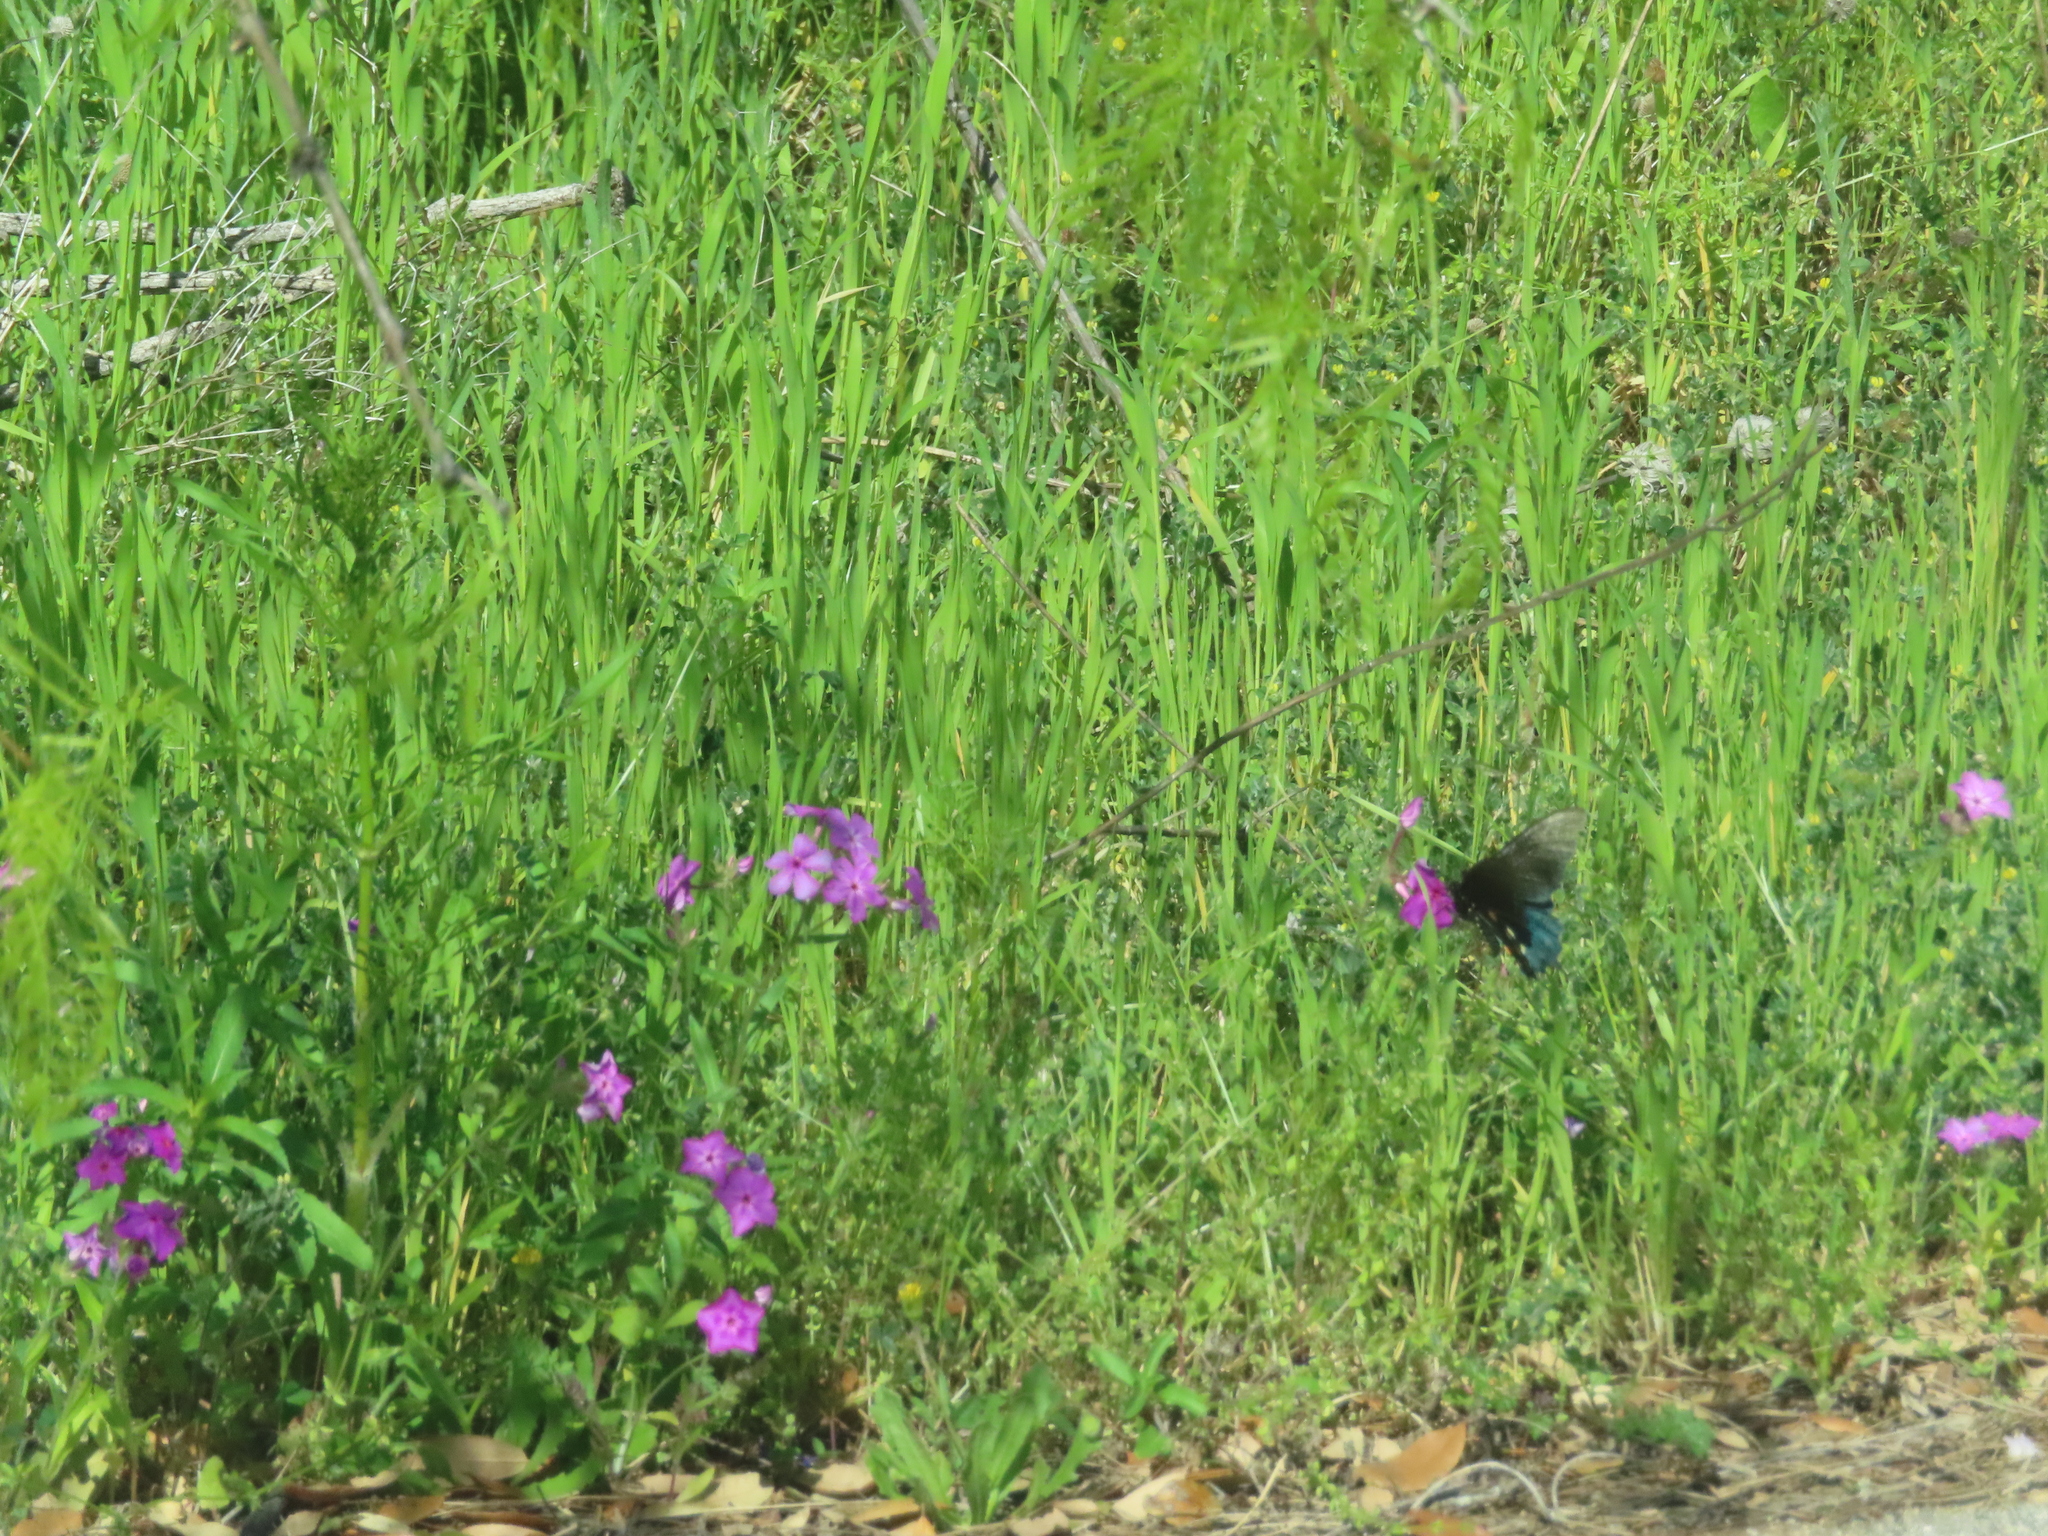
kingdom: Animalia
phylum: Arthropoda
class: Insecta
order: Lepidoptera
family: Papilionidae
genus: Battus
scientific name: Battus philenor
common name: Pipevine swallowtail
